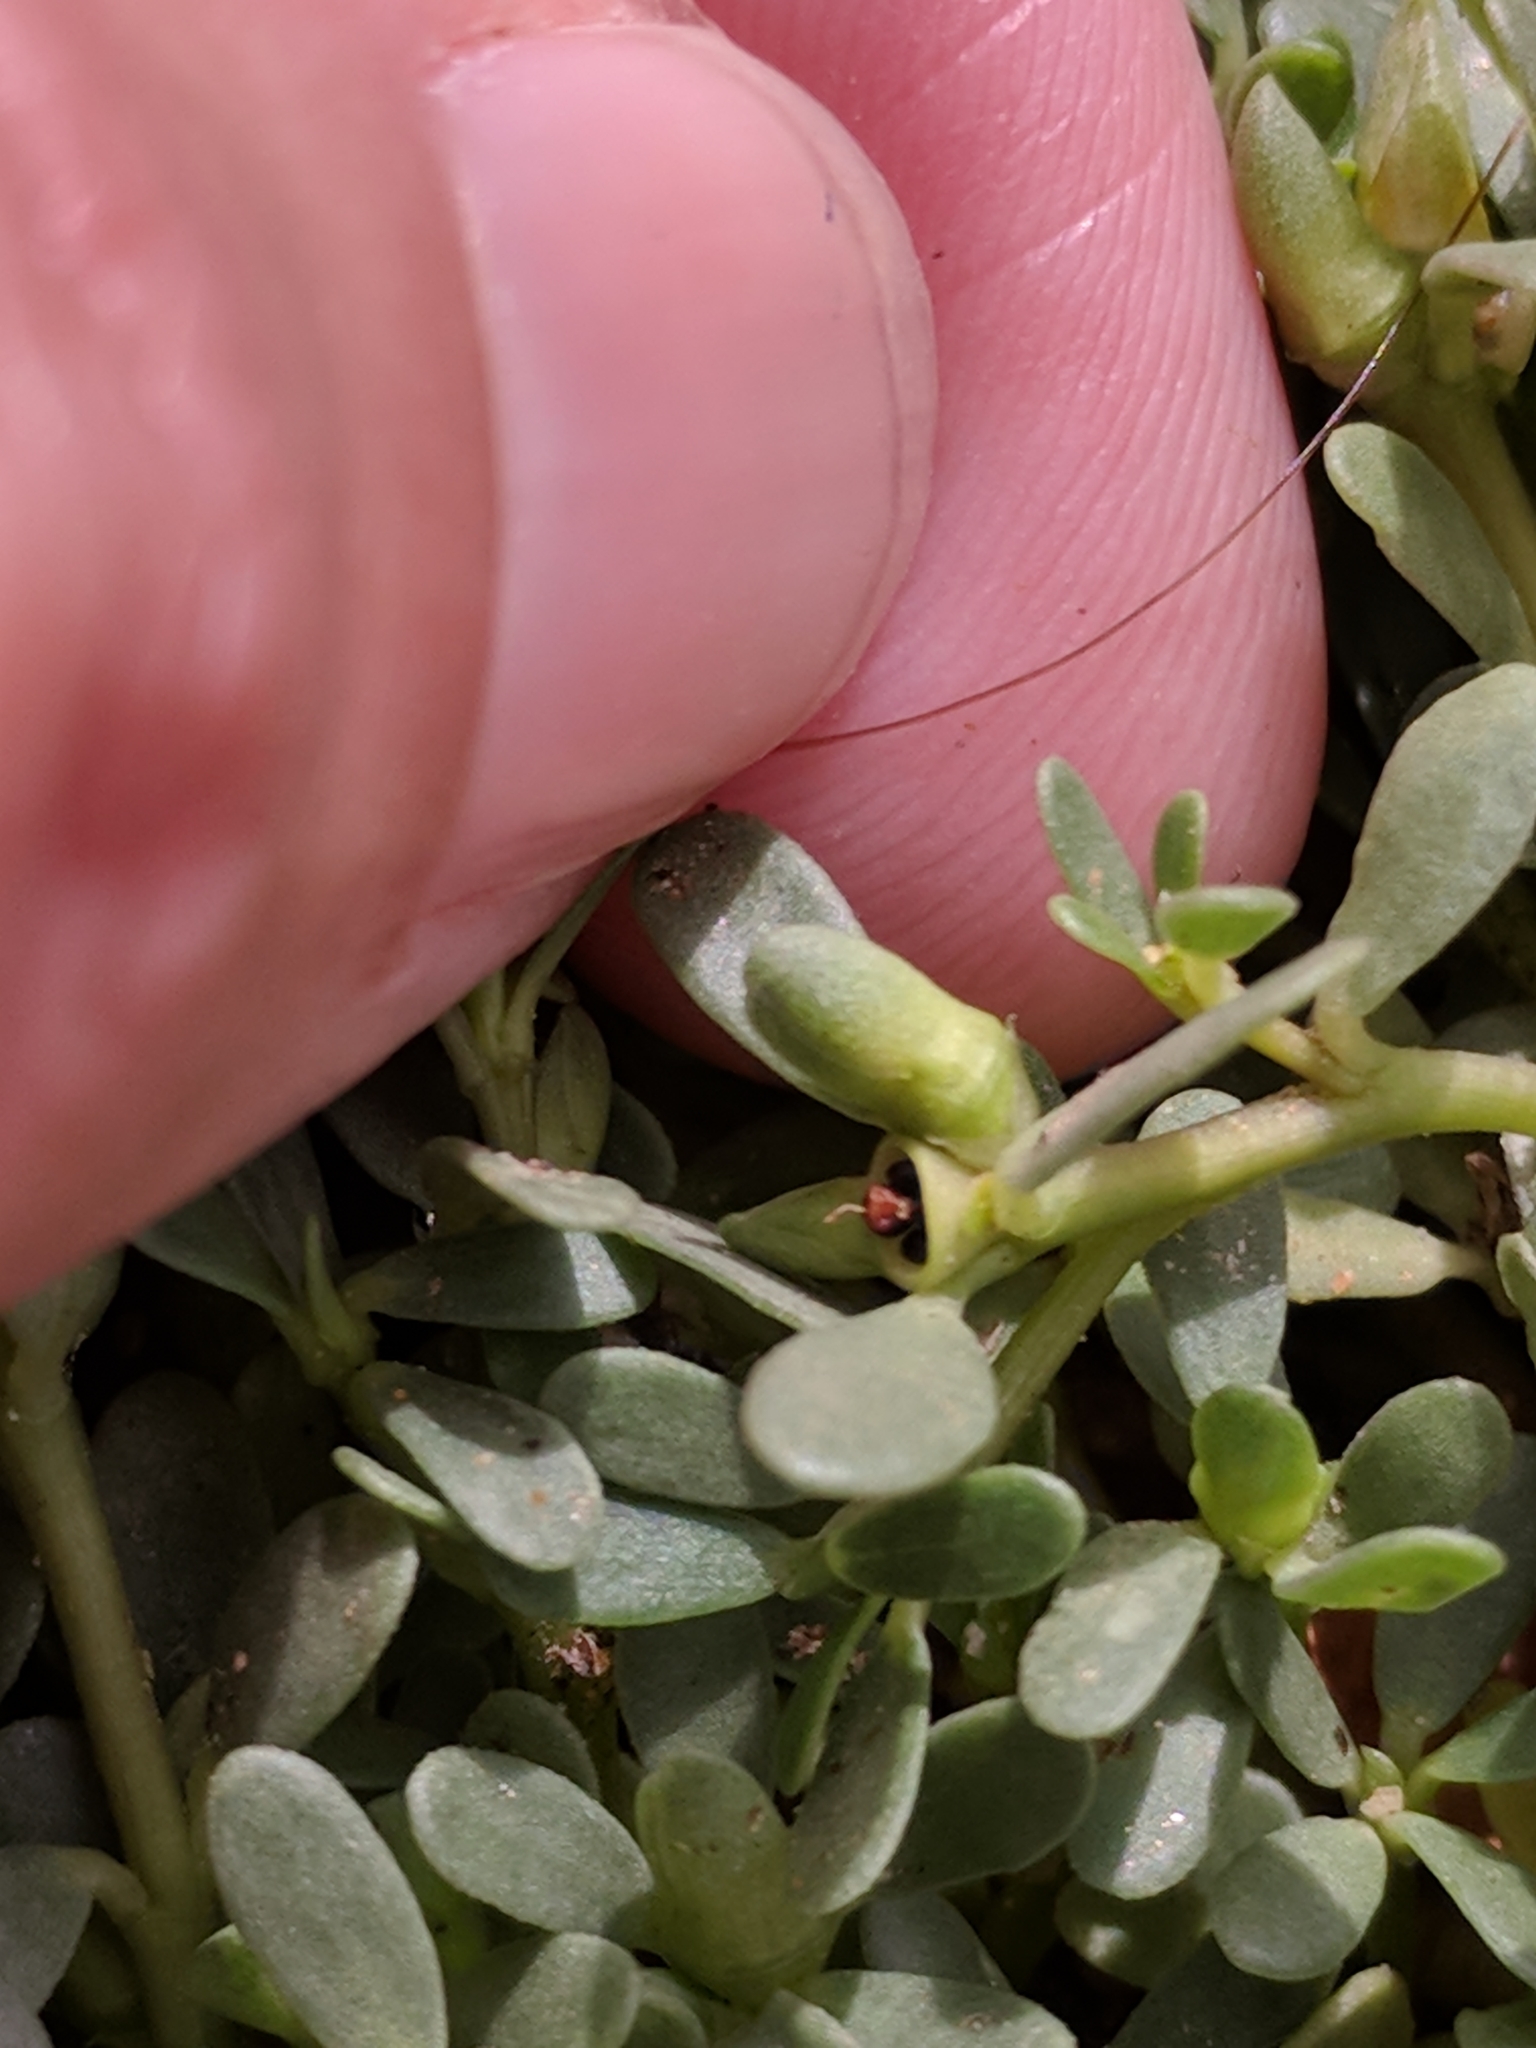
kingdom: Plantae
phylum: Tracheophyta
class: Magnoliopsida
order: Caryophyllales
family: Portulacaceae
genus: Portulaca
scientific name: Portulaca oleracea
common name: Common purslane
